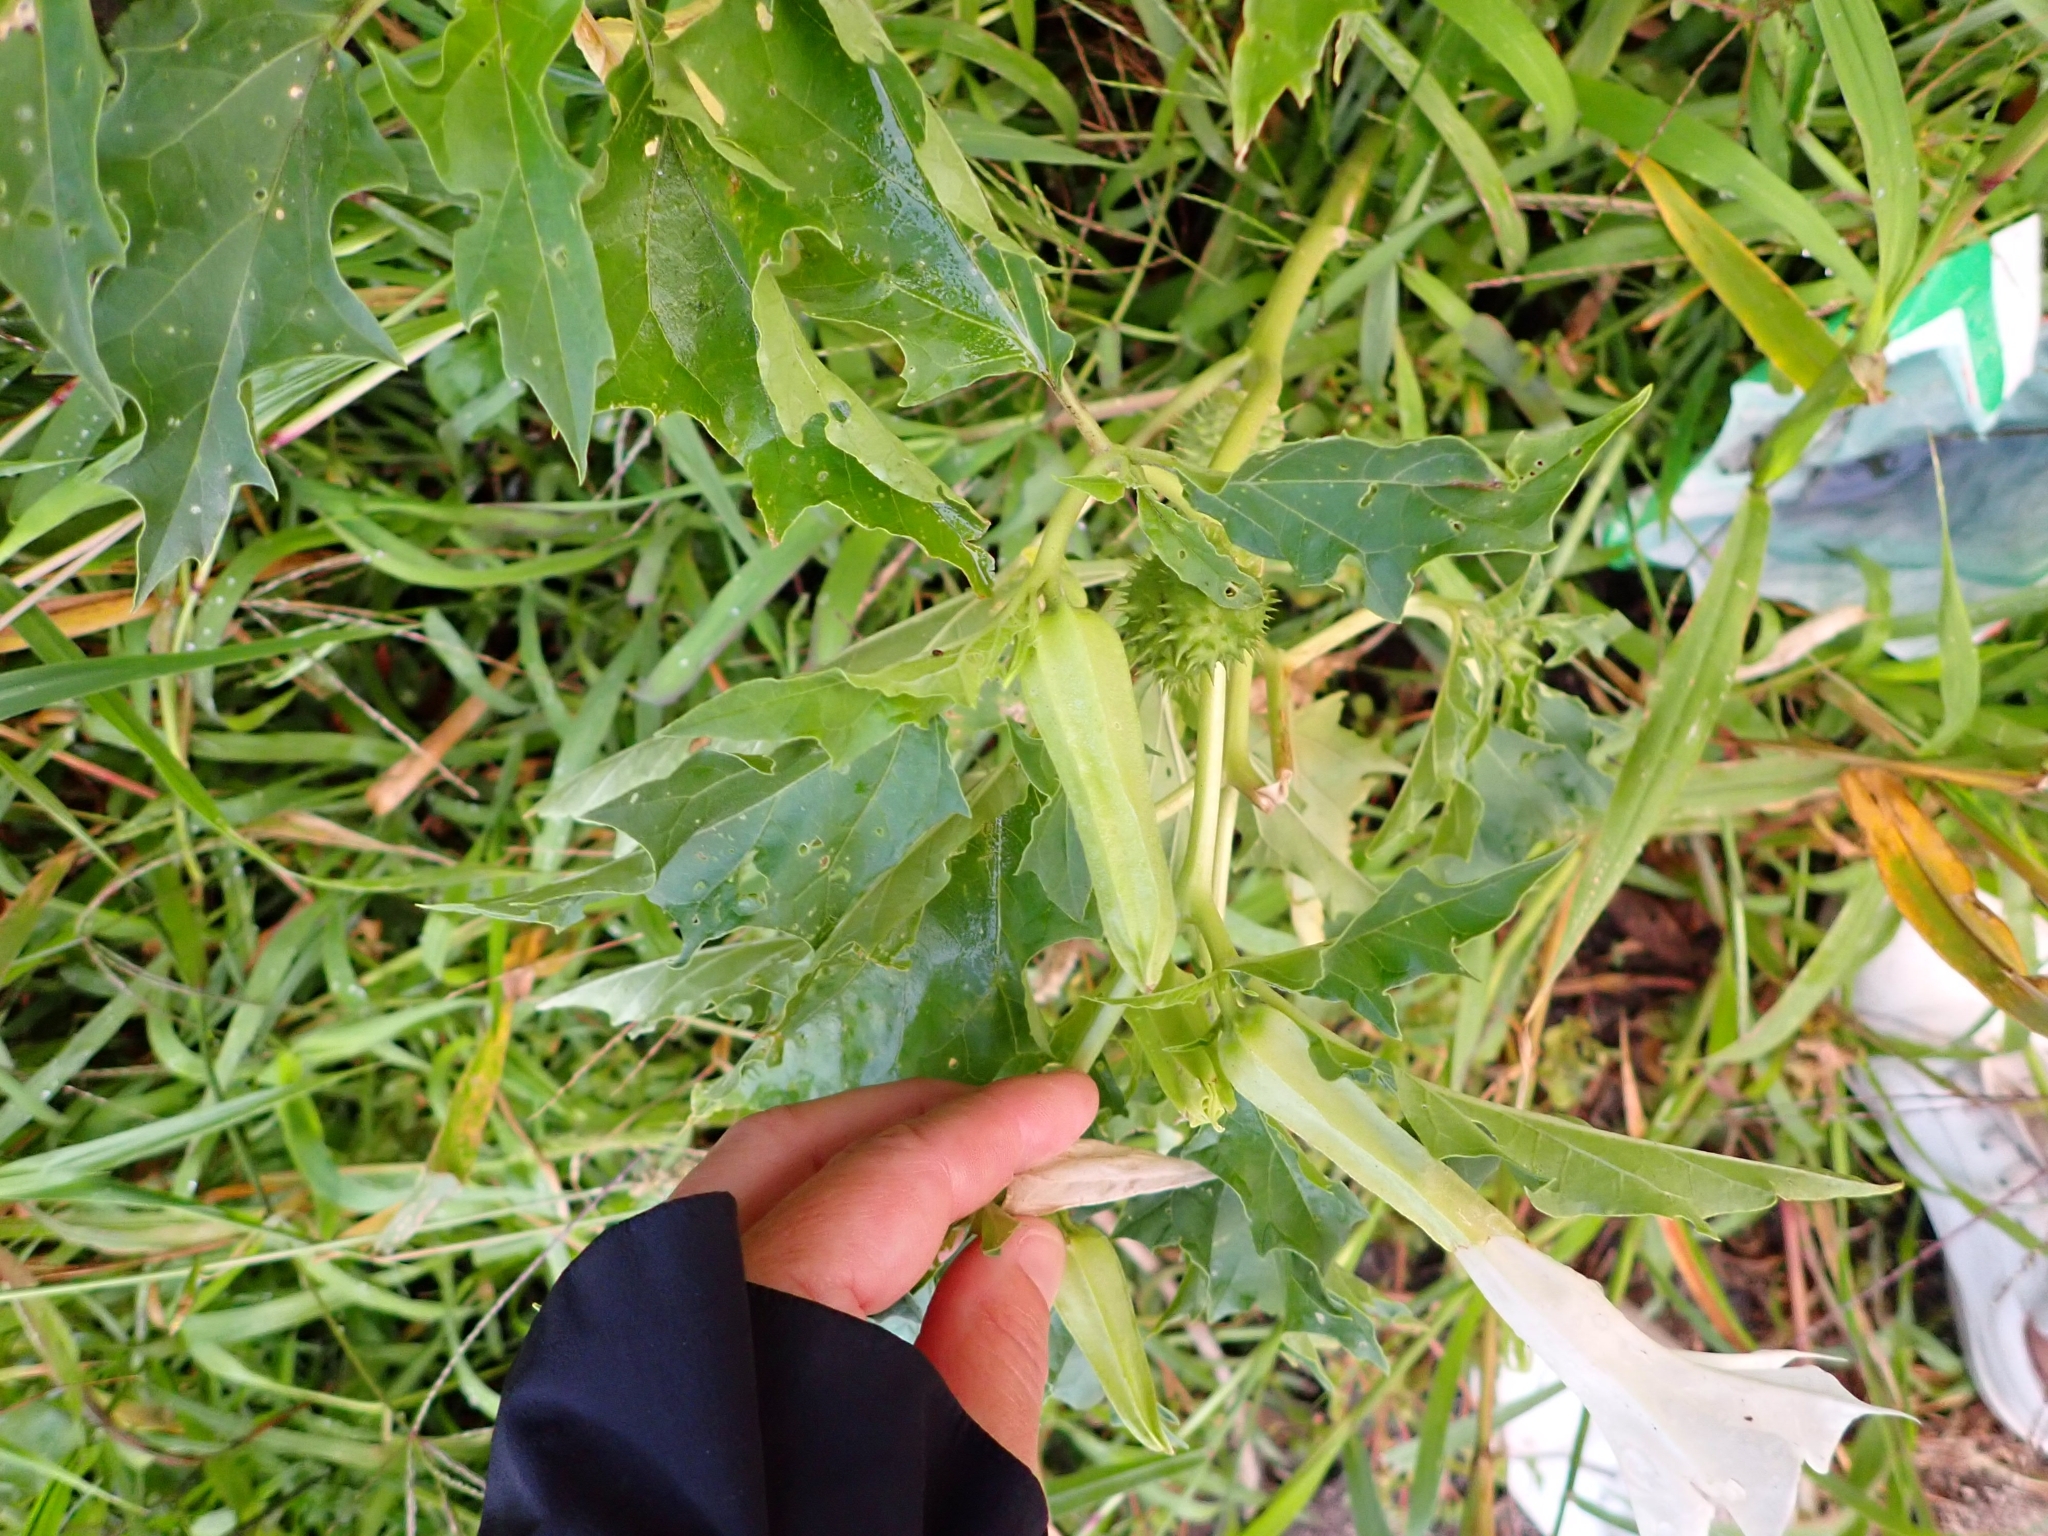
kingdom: Plantae
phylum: Tracheophyta
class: Magnoliopsida
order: Solanales
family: Solanaceae
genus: Datura
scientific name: Datura stramonium
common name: Thorn-apple
